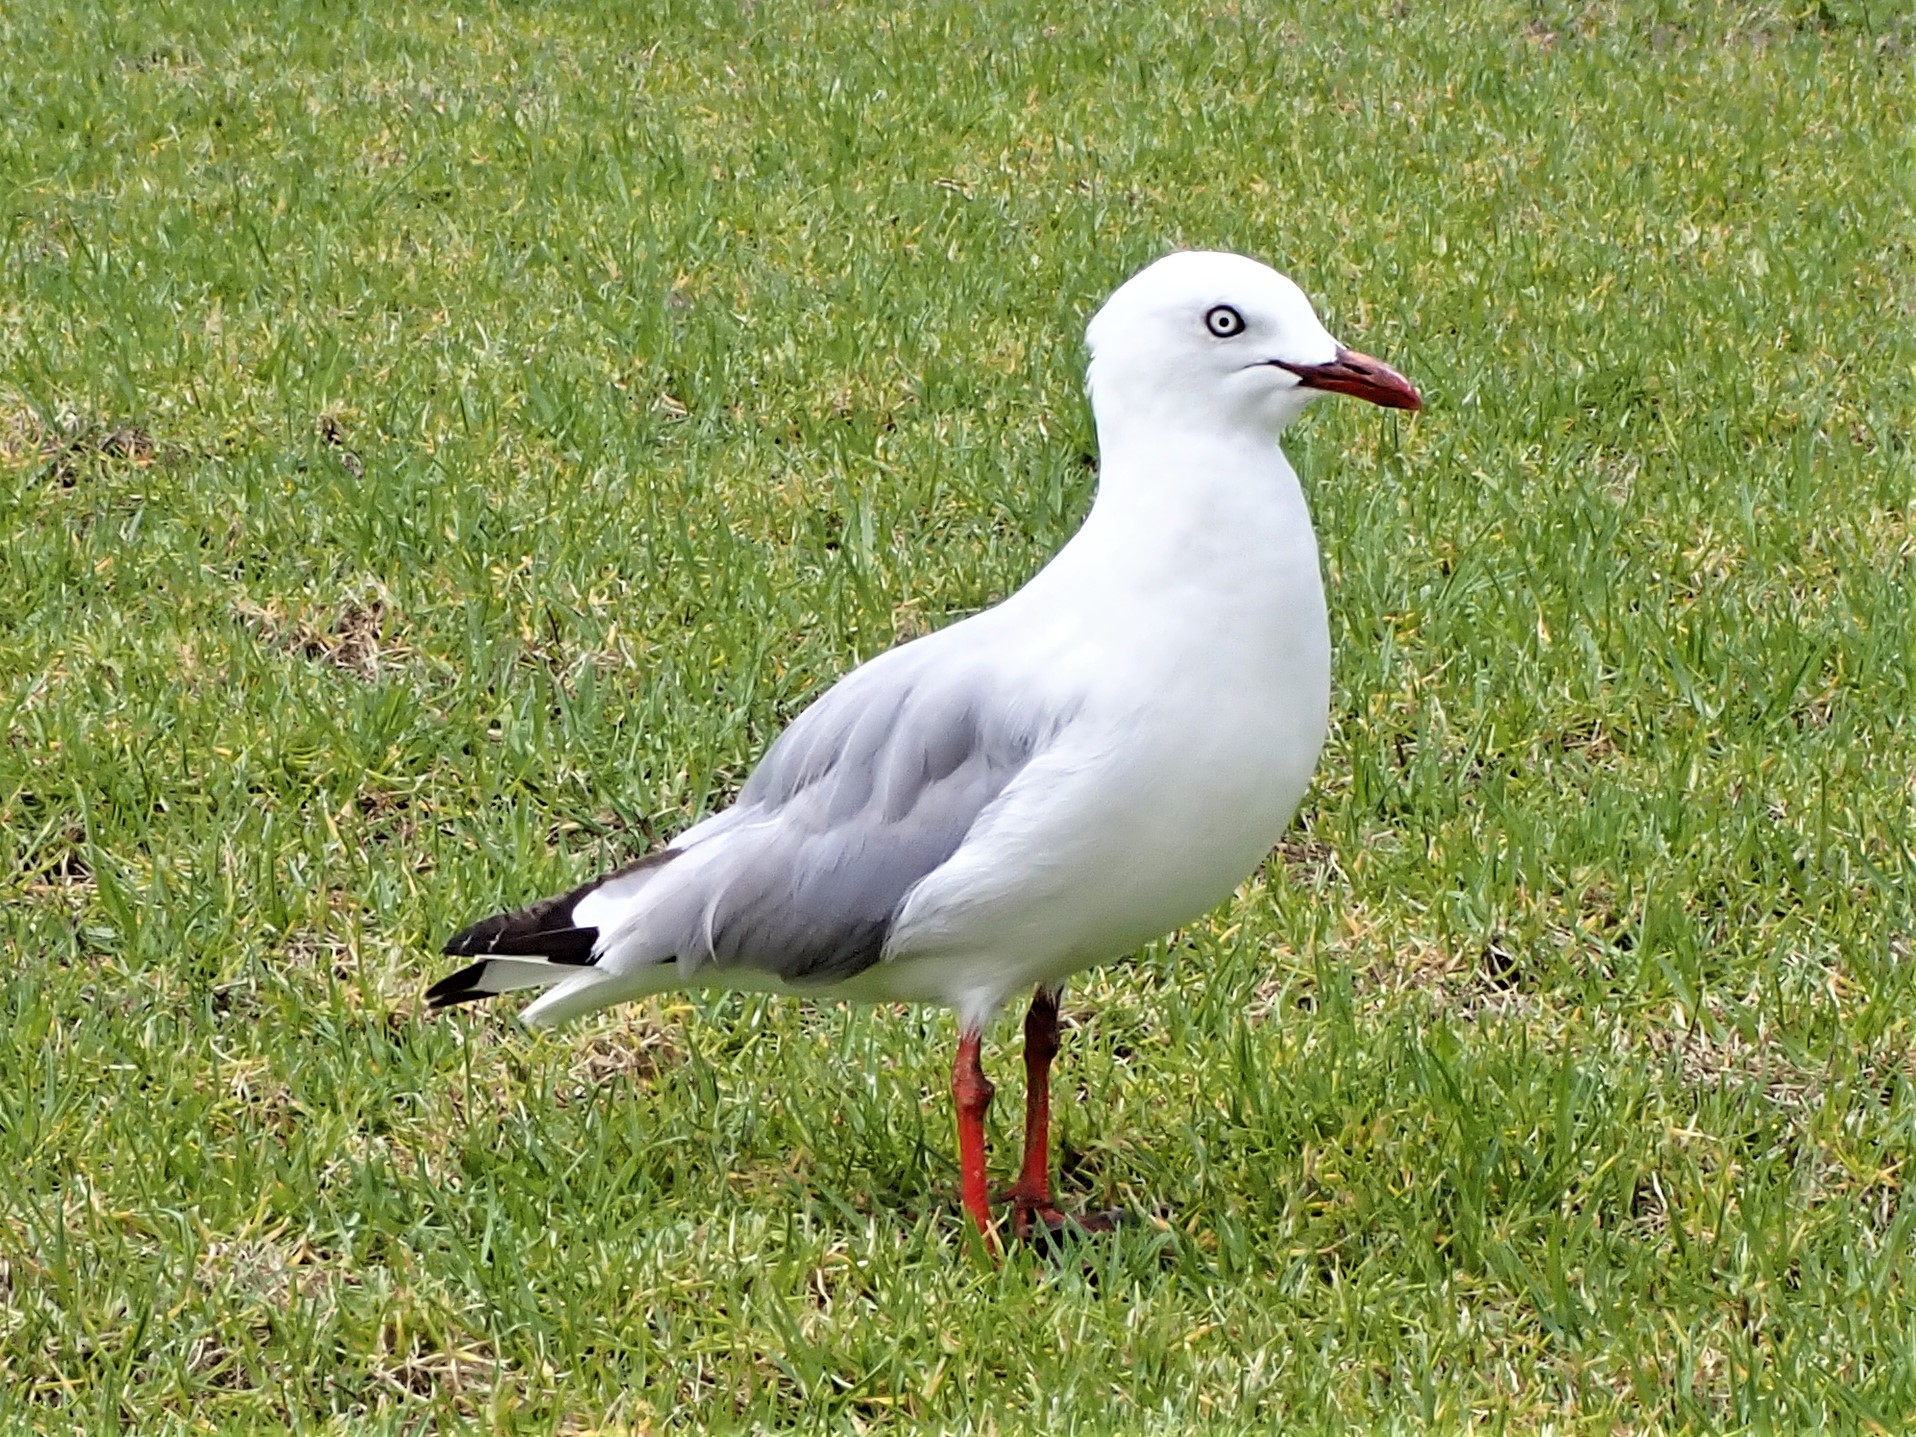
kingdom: Animalia
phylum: Chordata
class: Aves
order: Charadriiformes
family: Laridae
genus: Chroicocephalus
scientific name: Chroicocephalus novaehollandiae
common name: Silver gull
